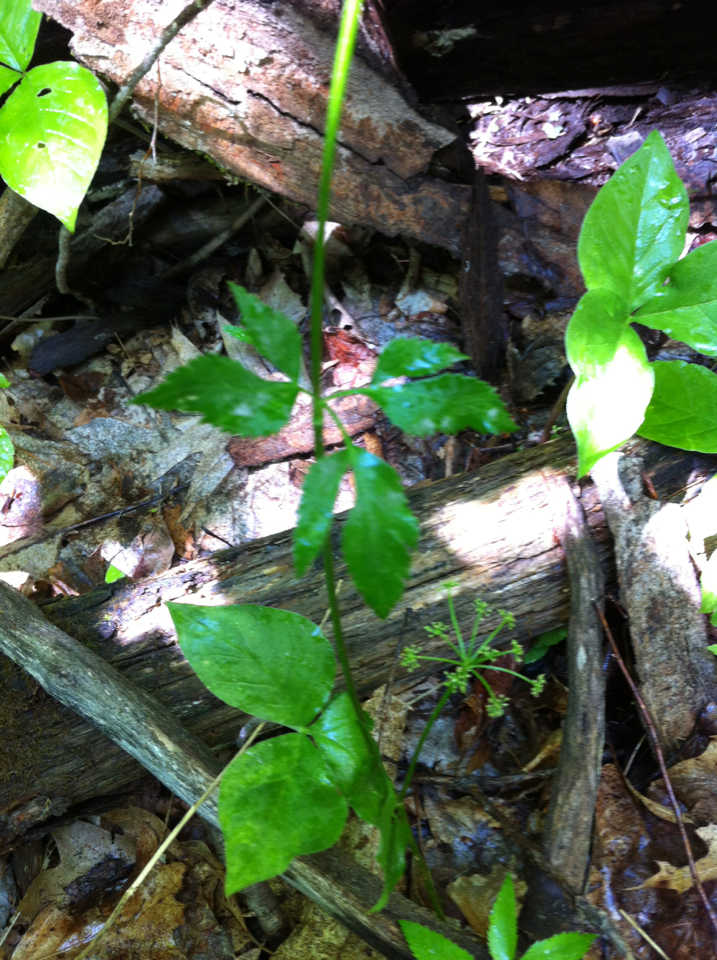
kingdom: Plantae
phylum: Tracheophyta
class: Magnoliopsida
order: Apiales
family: Apiaceae
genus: Zizia
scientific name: Zizia aurea
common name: Golden alexanders
